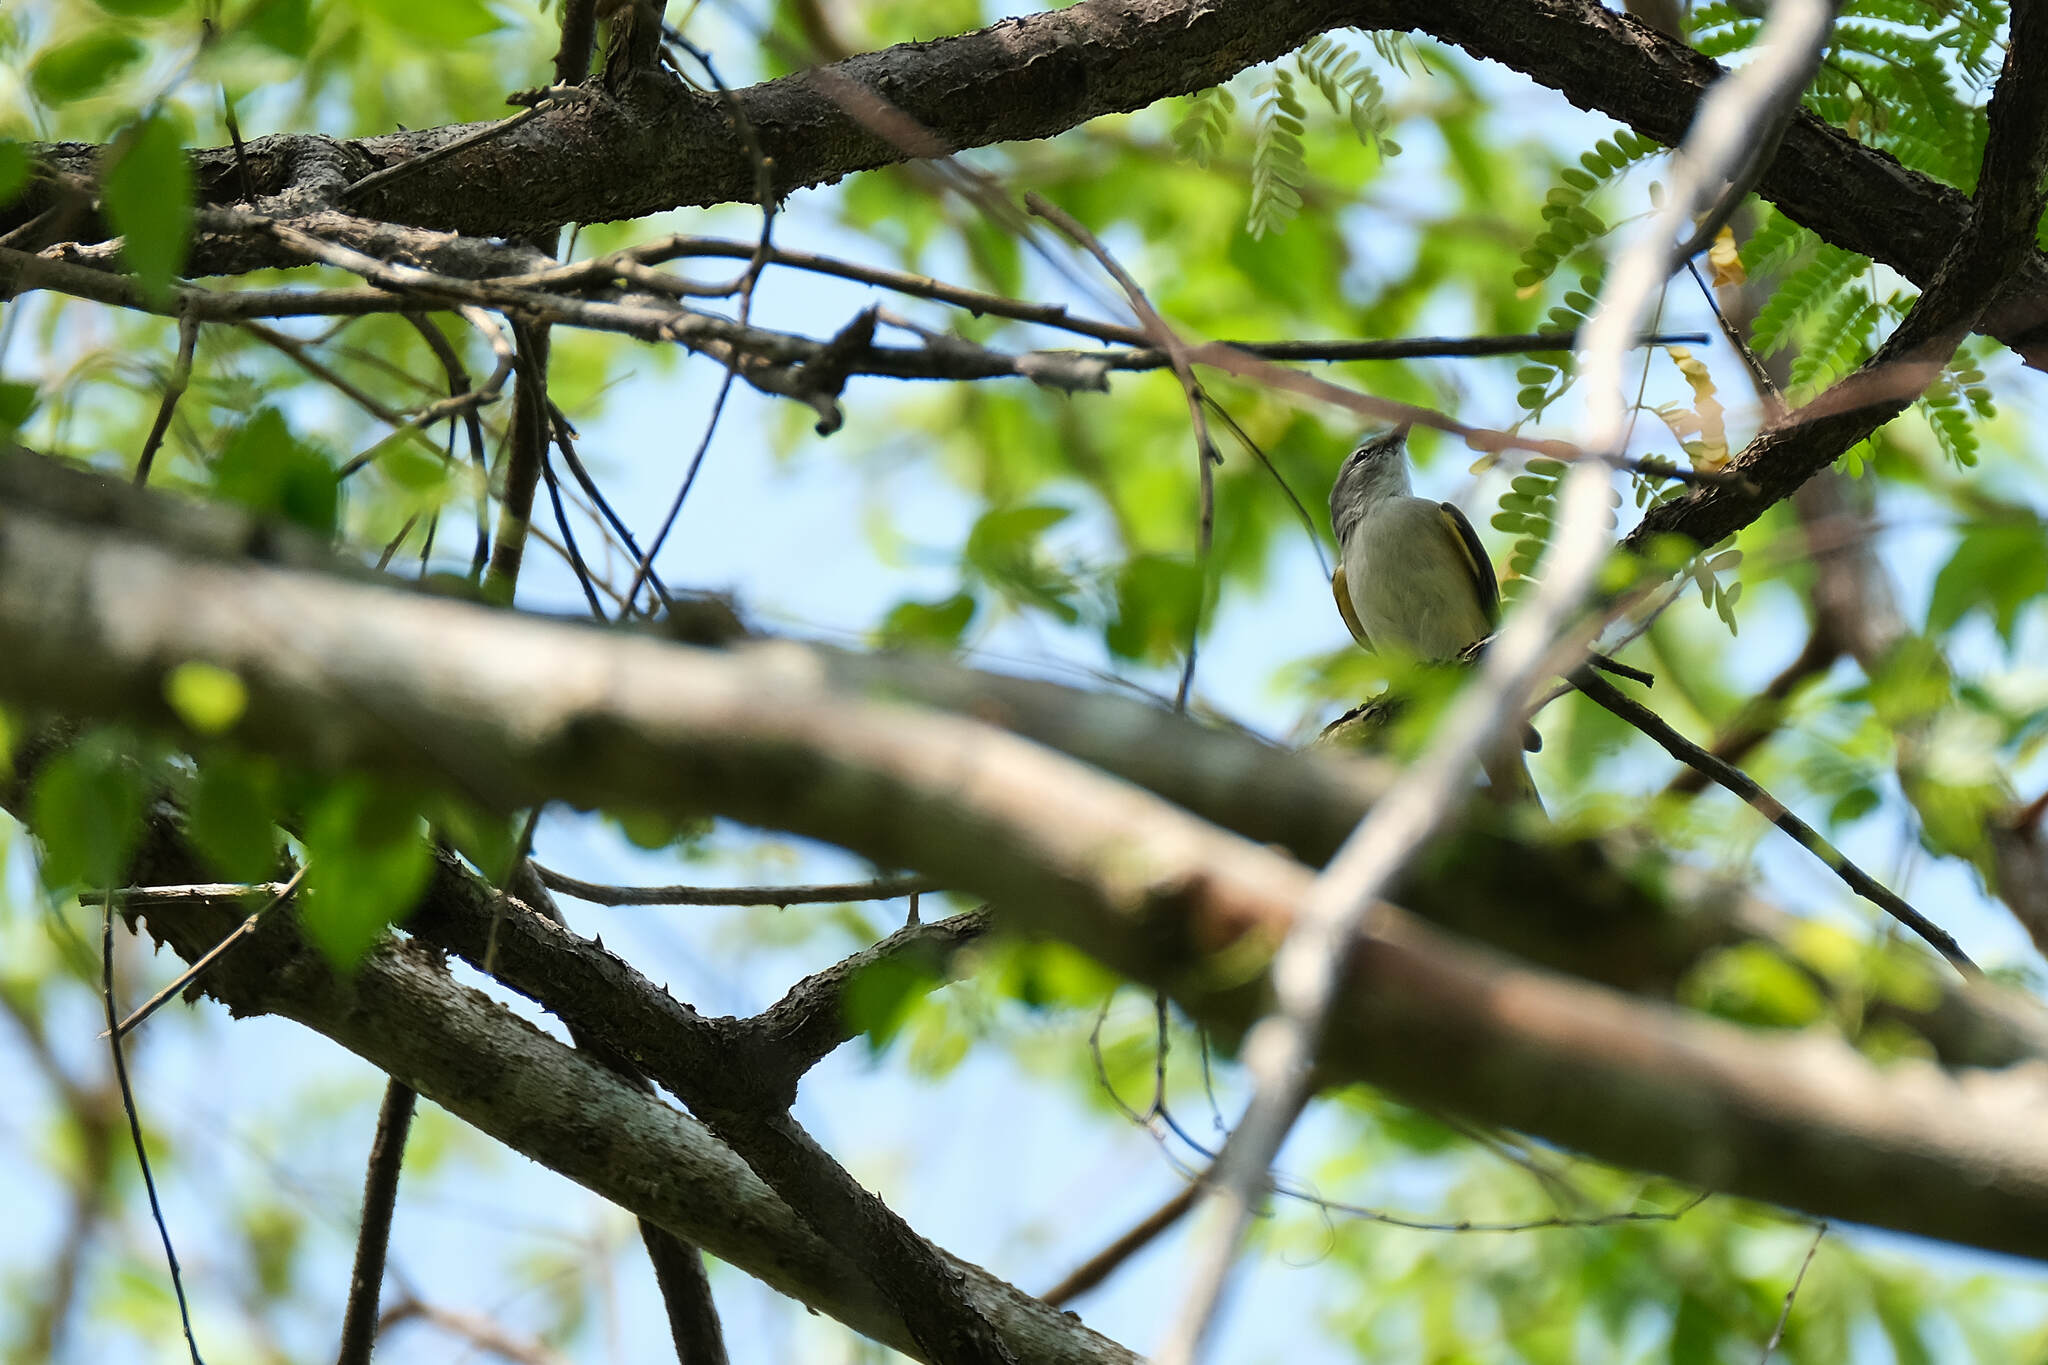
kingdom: Animalia
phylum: Chordata
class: Aves
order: Passeriformes
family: Campephagidae
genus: Pericrocotus
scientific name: Pericrocotus cinnamomeus
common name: Small minivet
